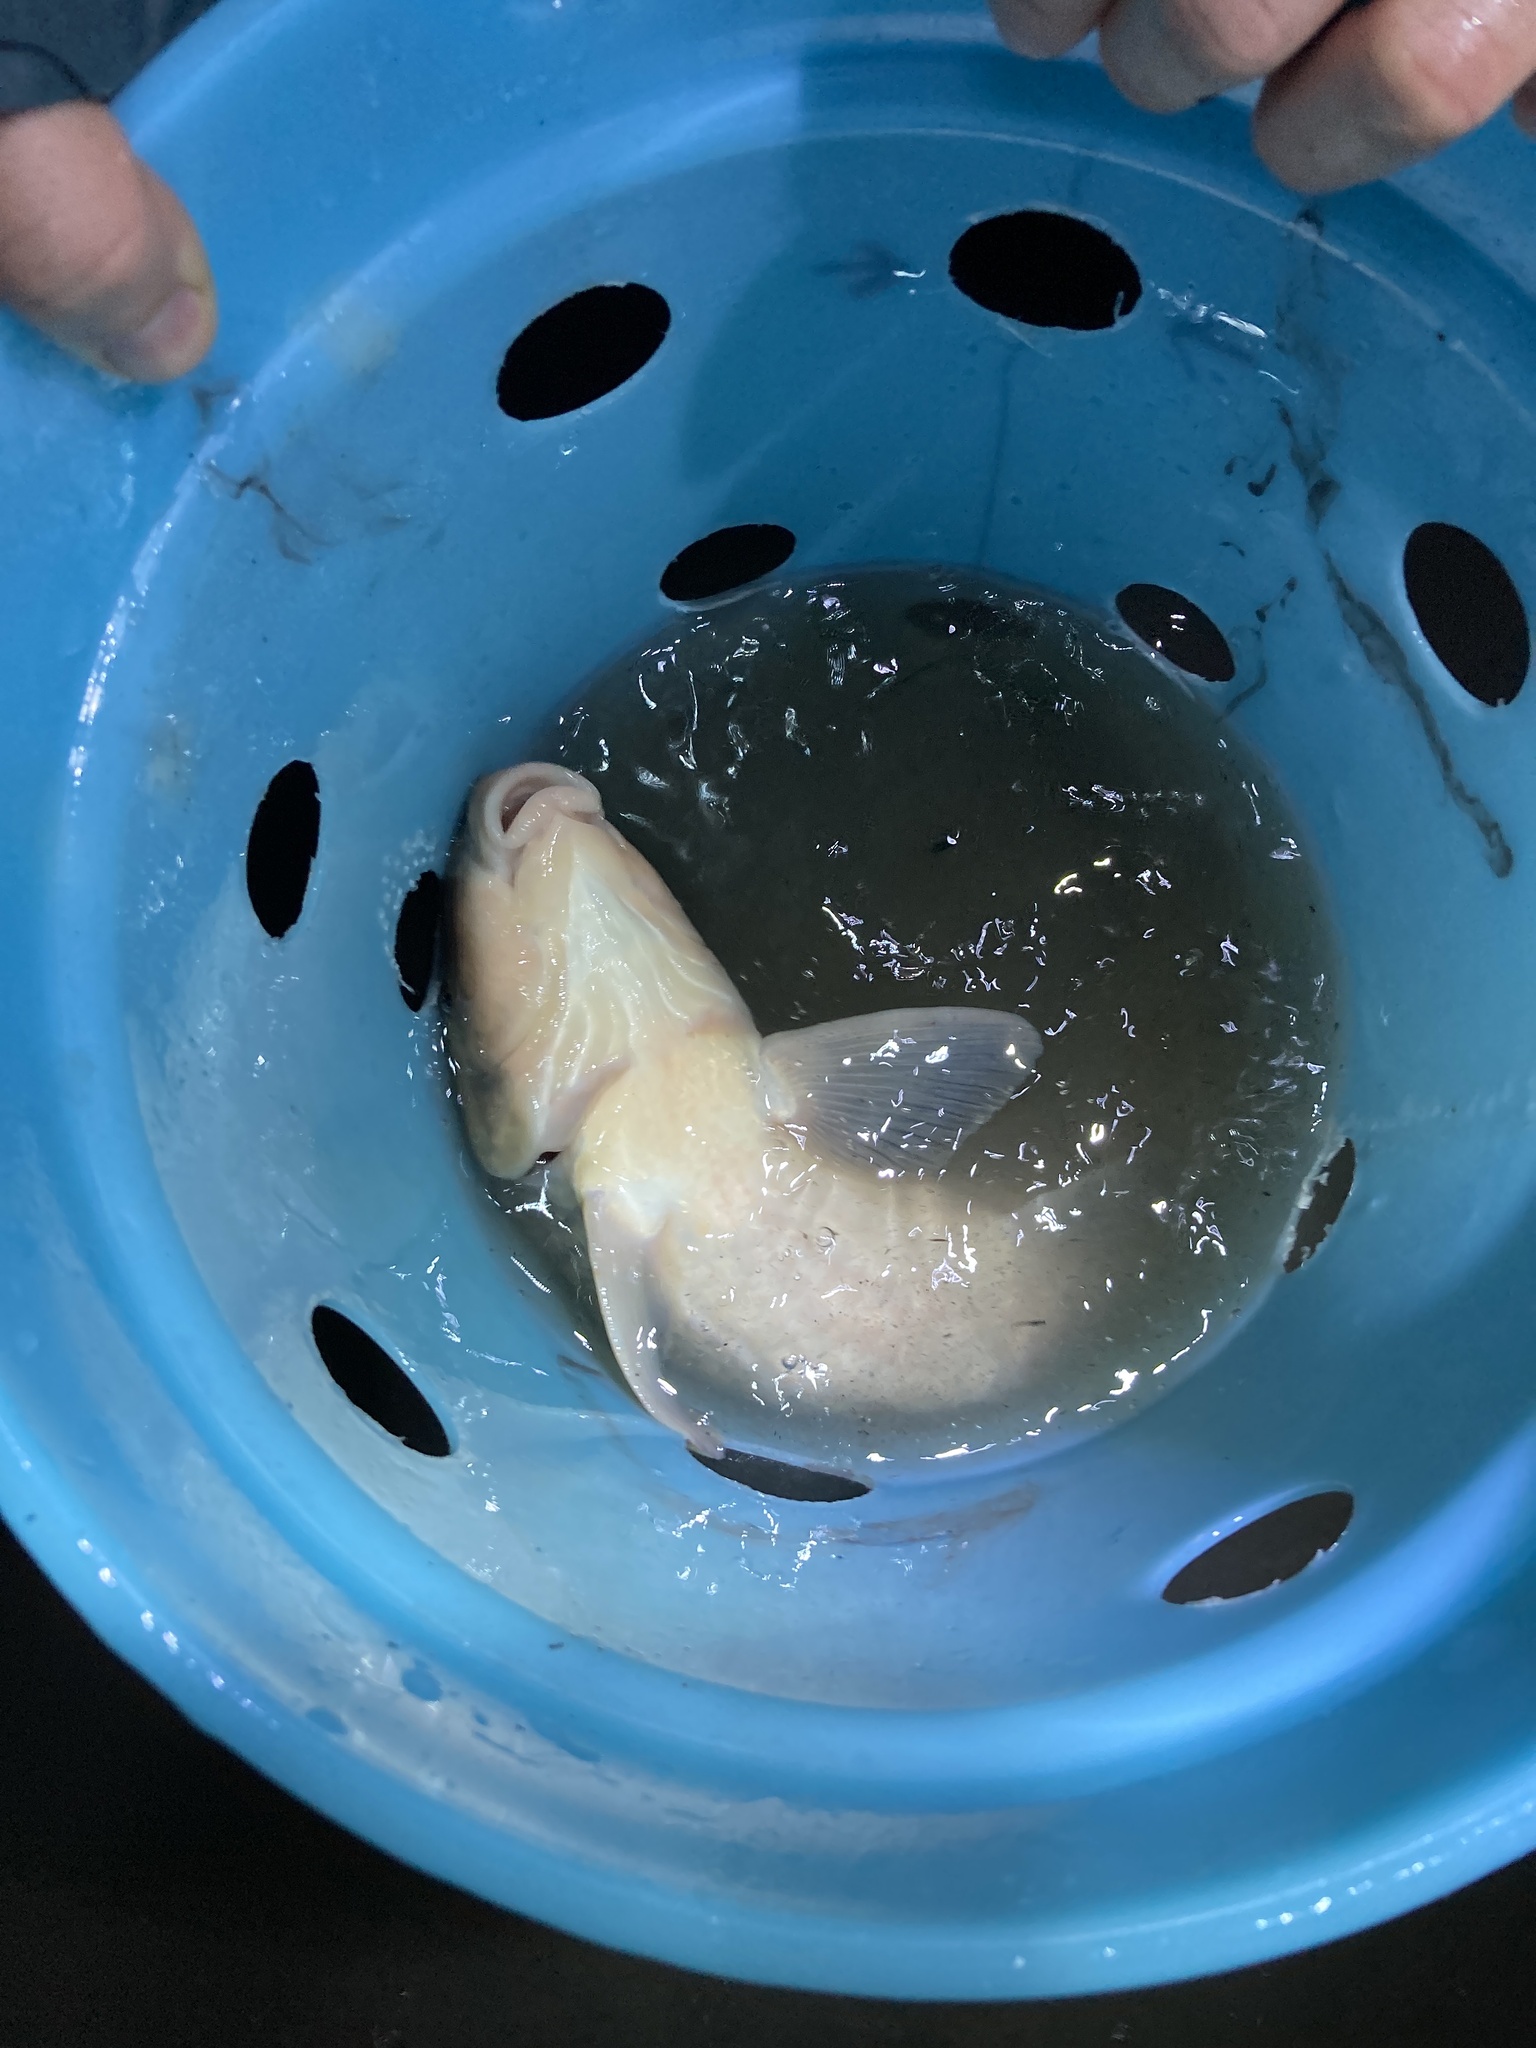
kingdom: Animalia
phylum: Chordata
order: Cypriniformes
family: Catostomidae
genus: Minytrema
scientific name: Minytrema melanops
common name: Spotted sucker
